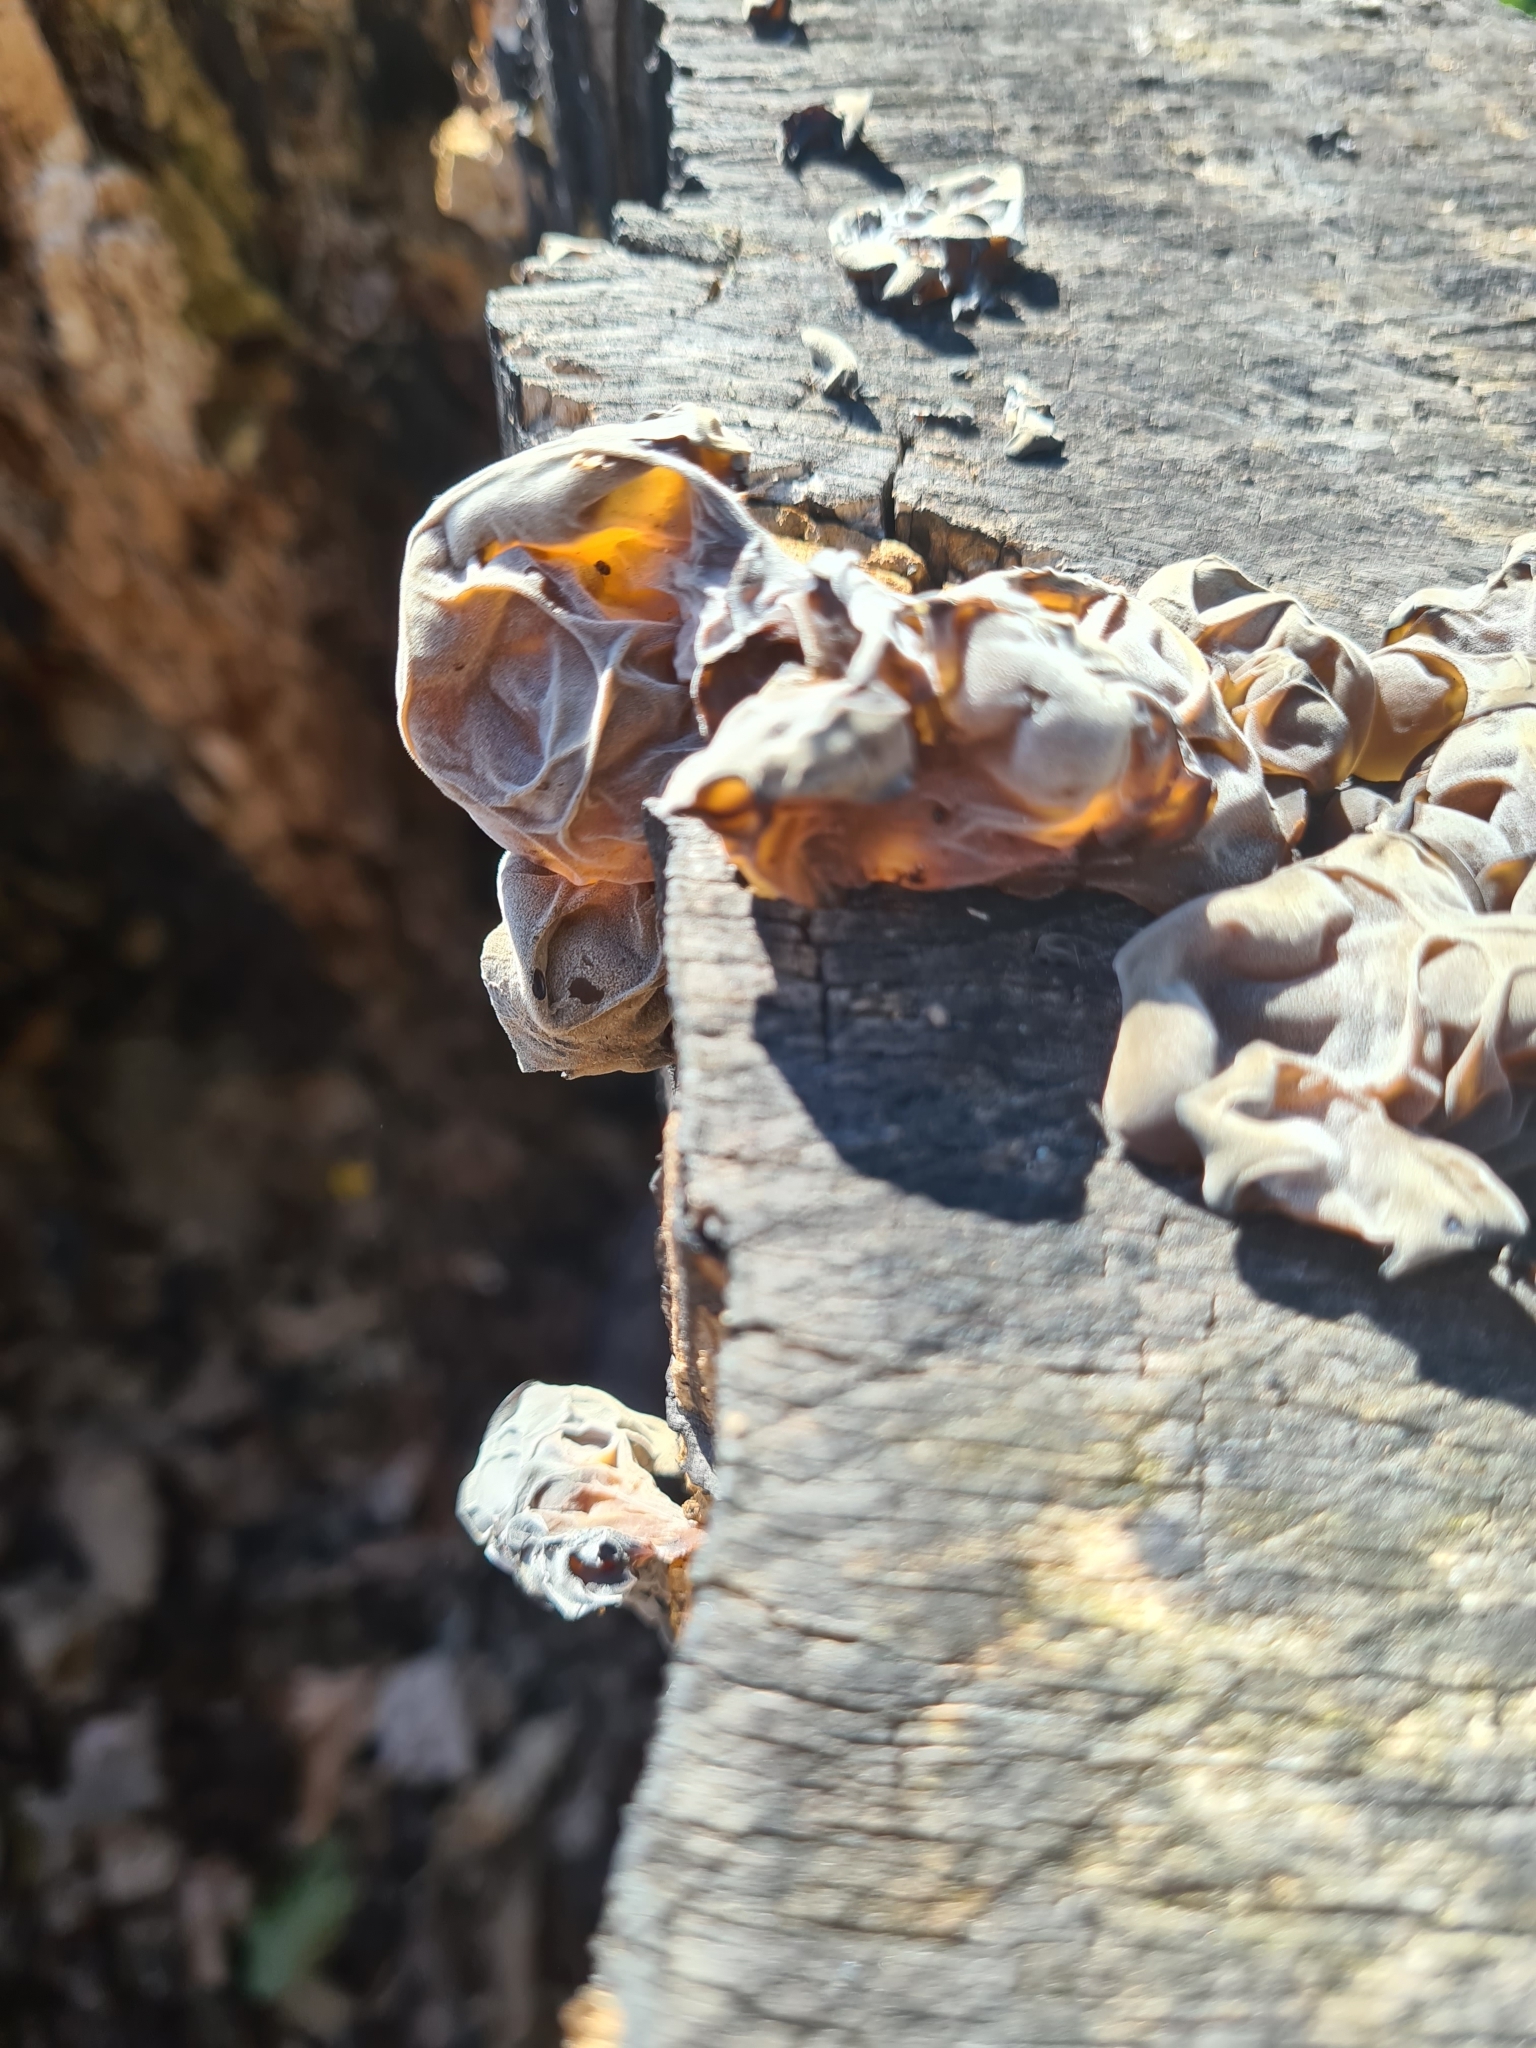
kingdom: Fungi
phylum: Basidiomycota
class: Agaricomycetes
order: Auriculariales
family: Auriculariaceae
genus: Auricularia
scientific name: Auricularia auricula-judae
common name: Jelly ear
